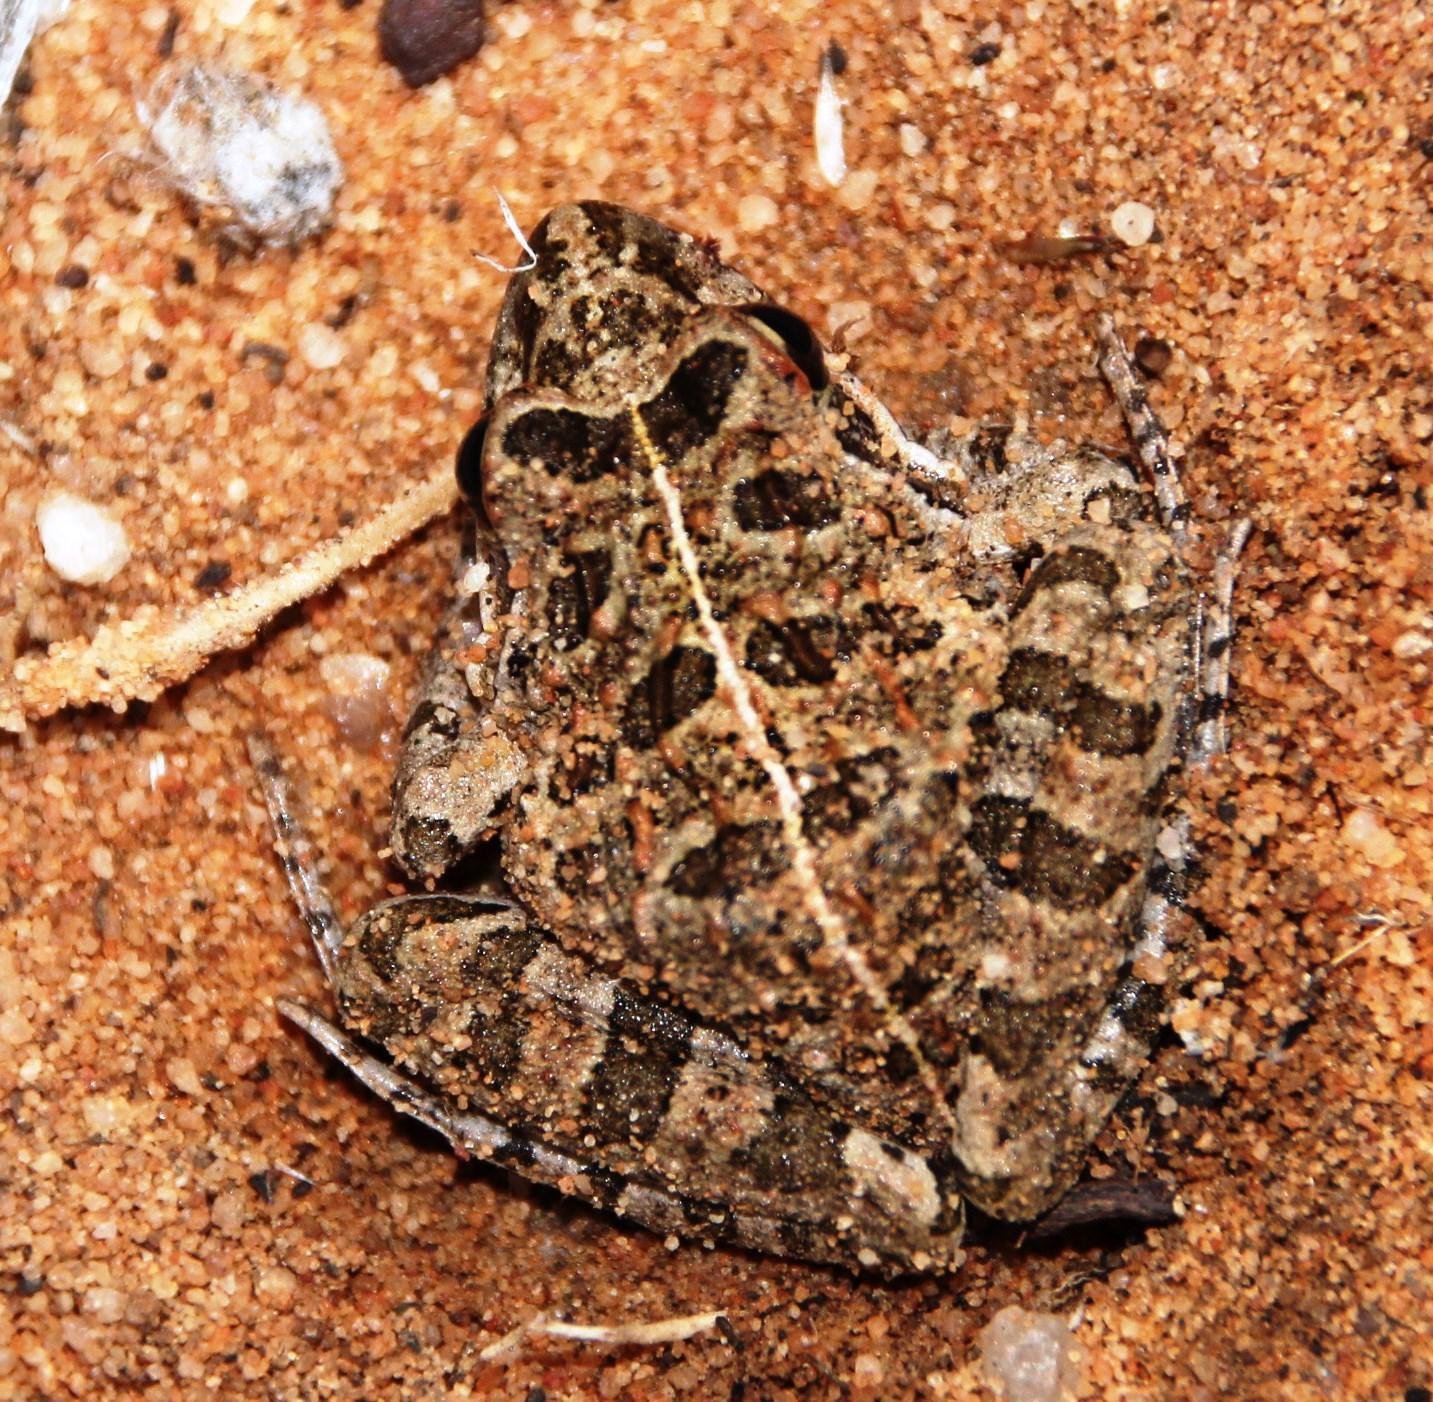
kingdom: Animalia
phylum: Chordata
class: Amphibia
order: Anura
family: Pyxicephalidae
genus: Strongylopus
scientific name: Strongylopus grayii
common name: Gray's stream frog
